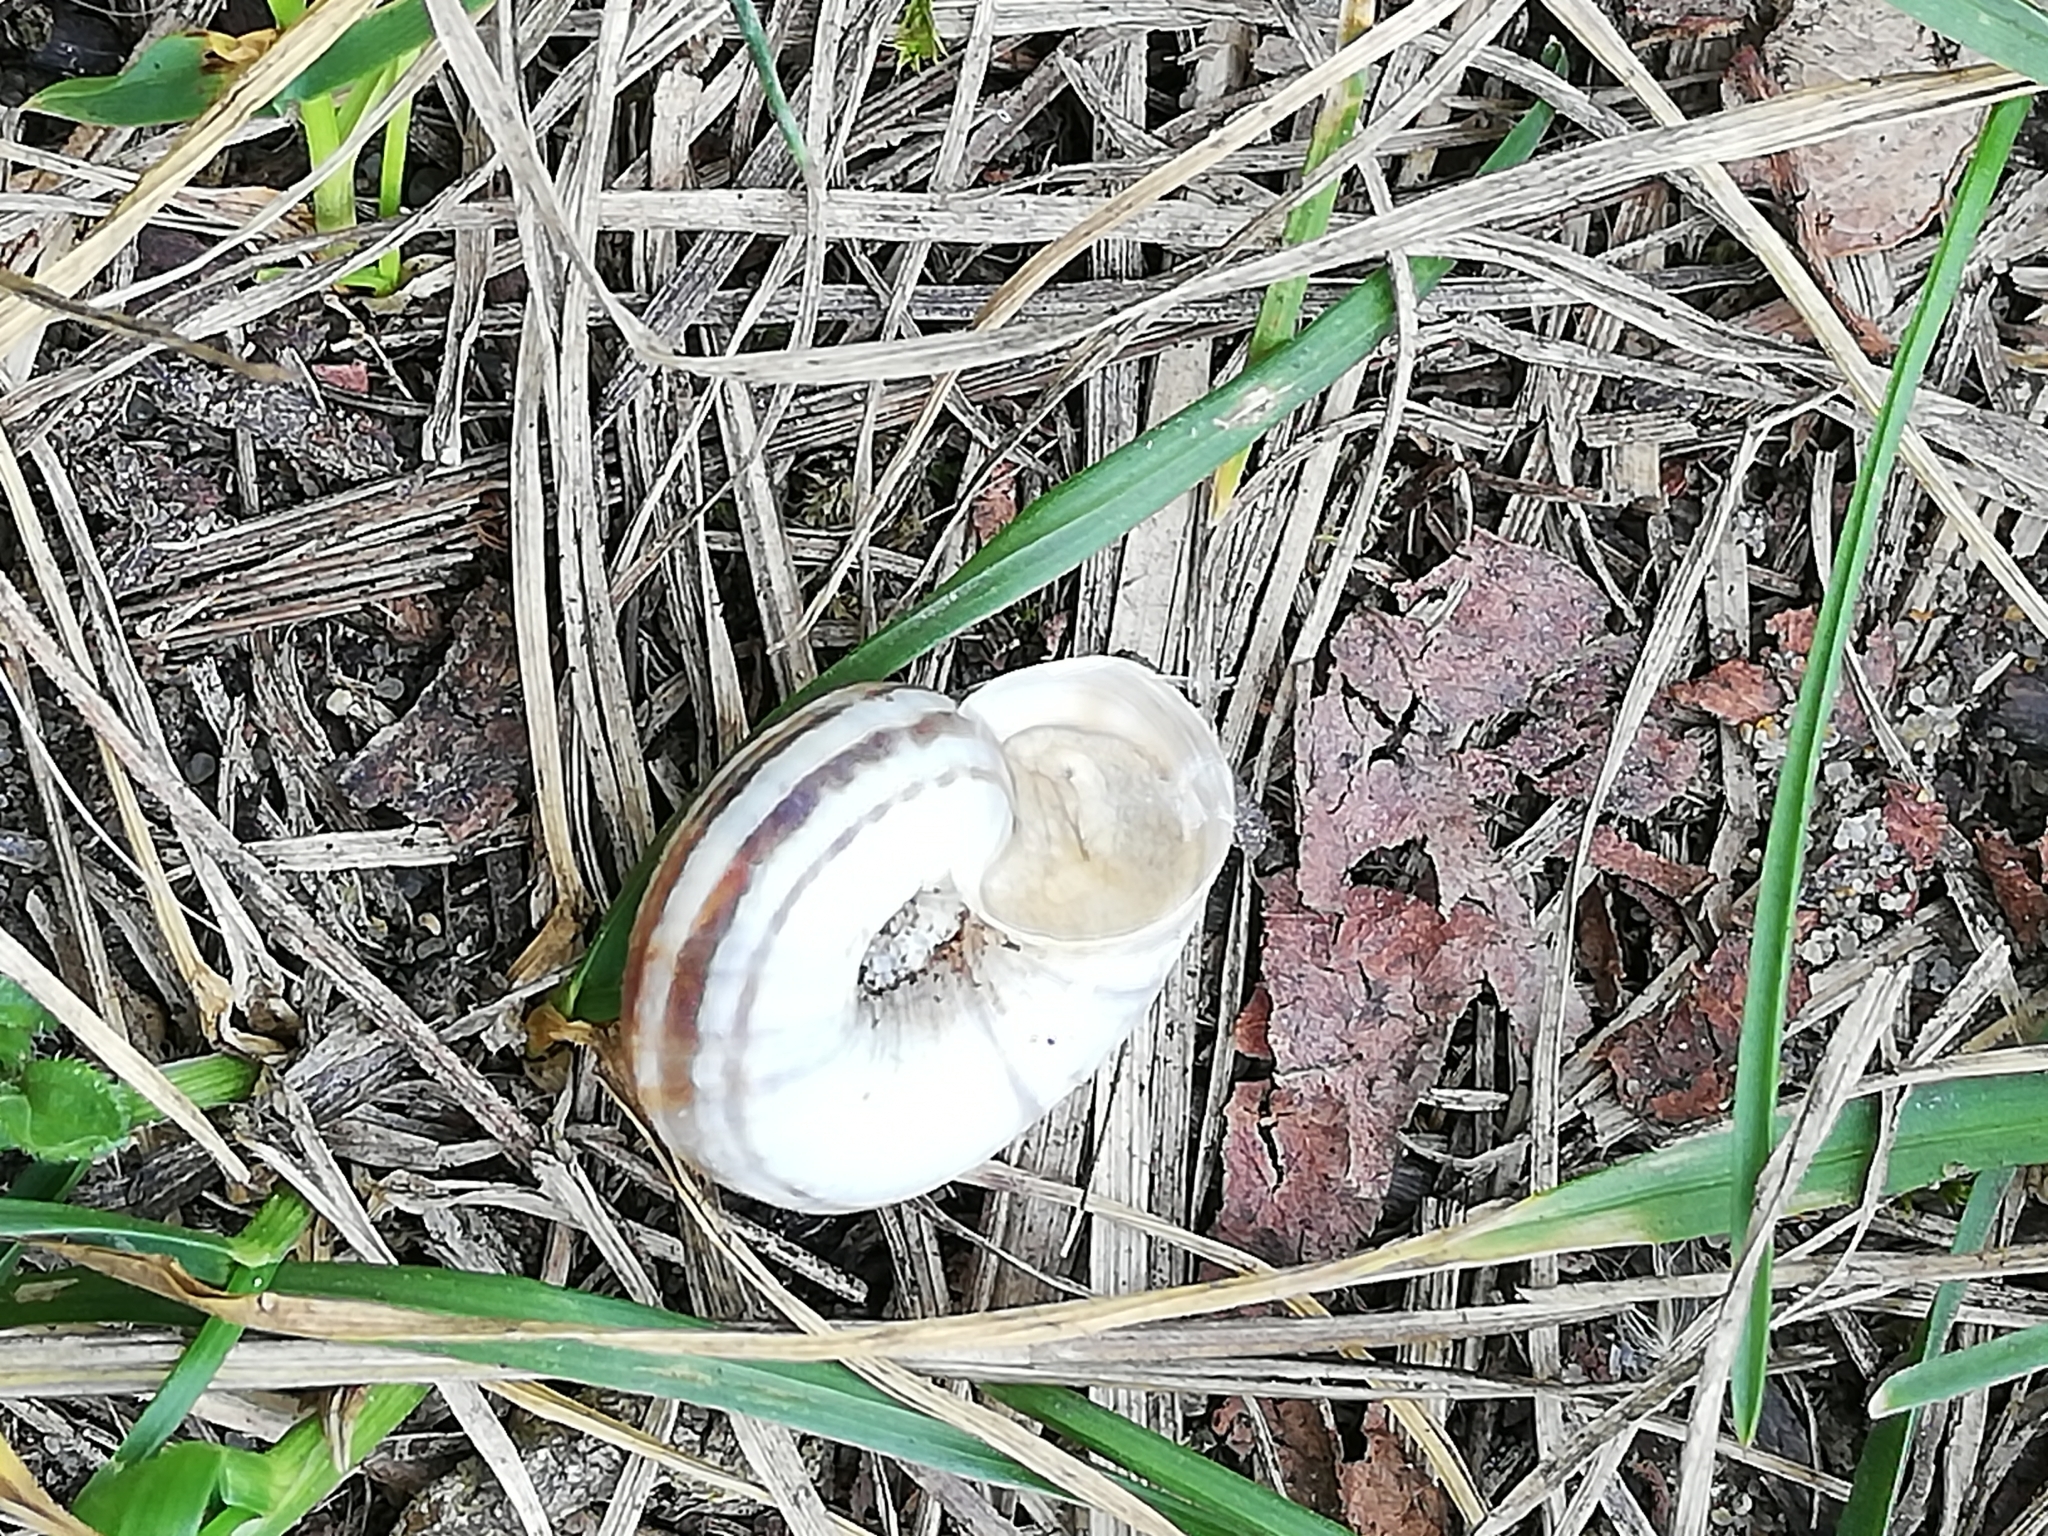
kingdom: Animalia
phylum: Mollusca
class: Gastropoda
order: Stylommatophora
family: Geomitridae
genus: Xerolenta
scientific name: Xerolenta obvia
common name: White heath snail
